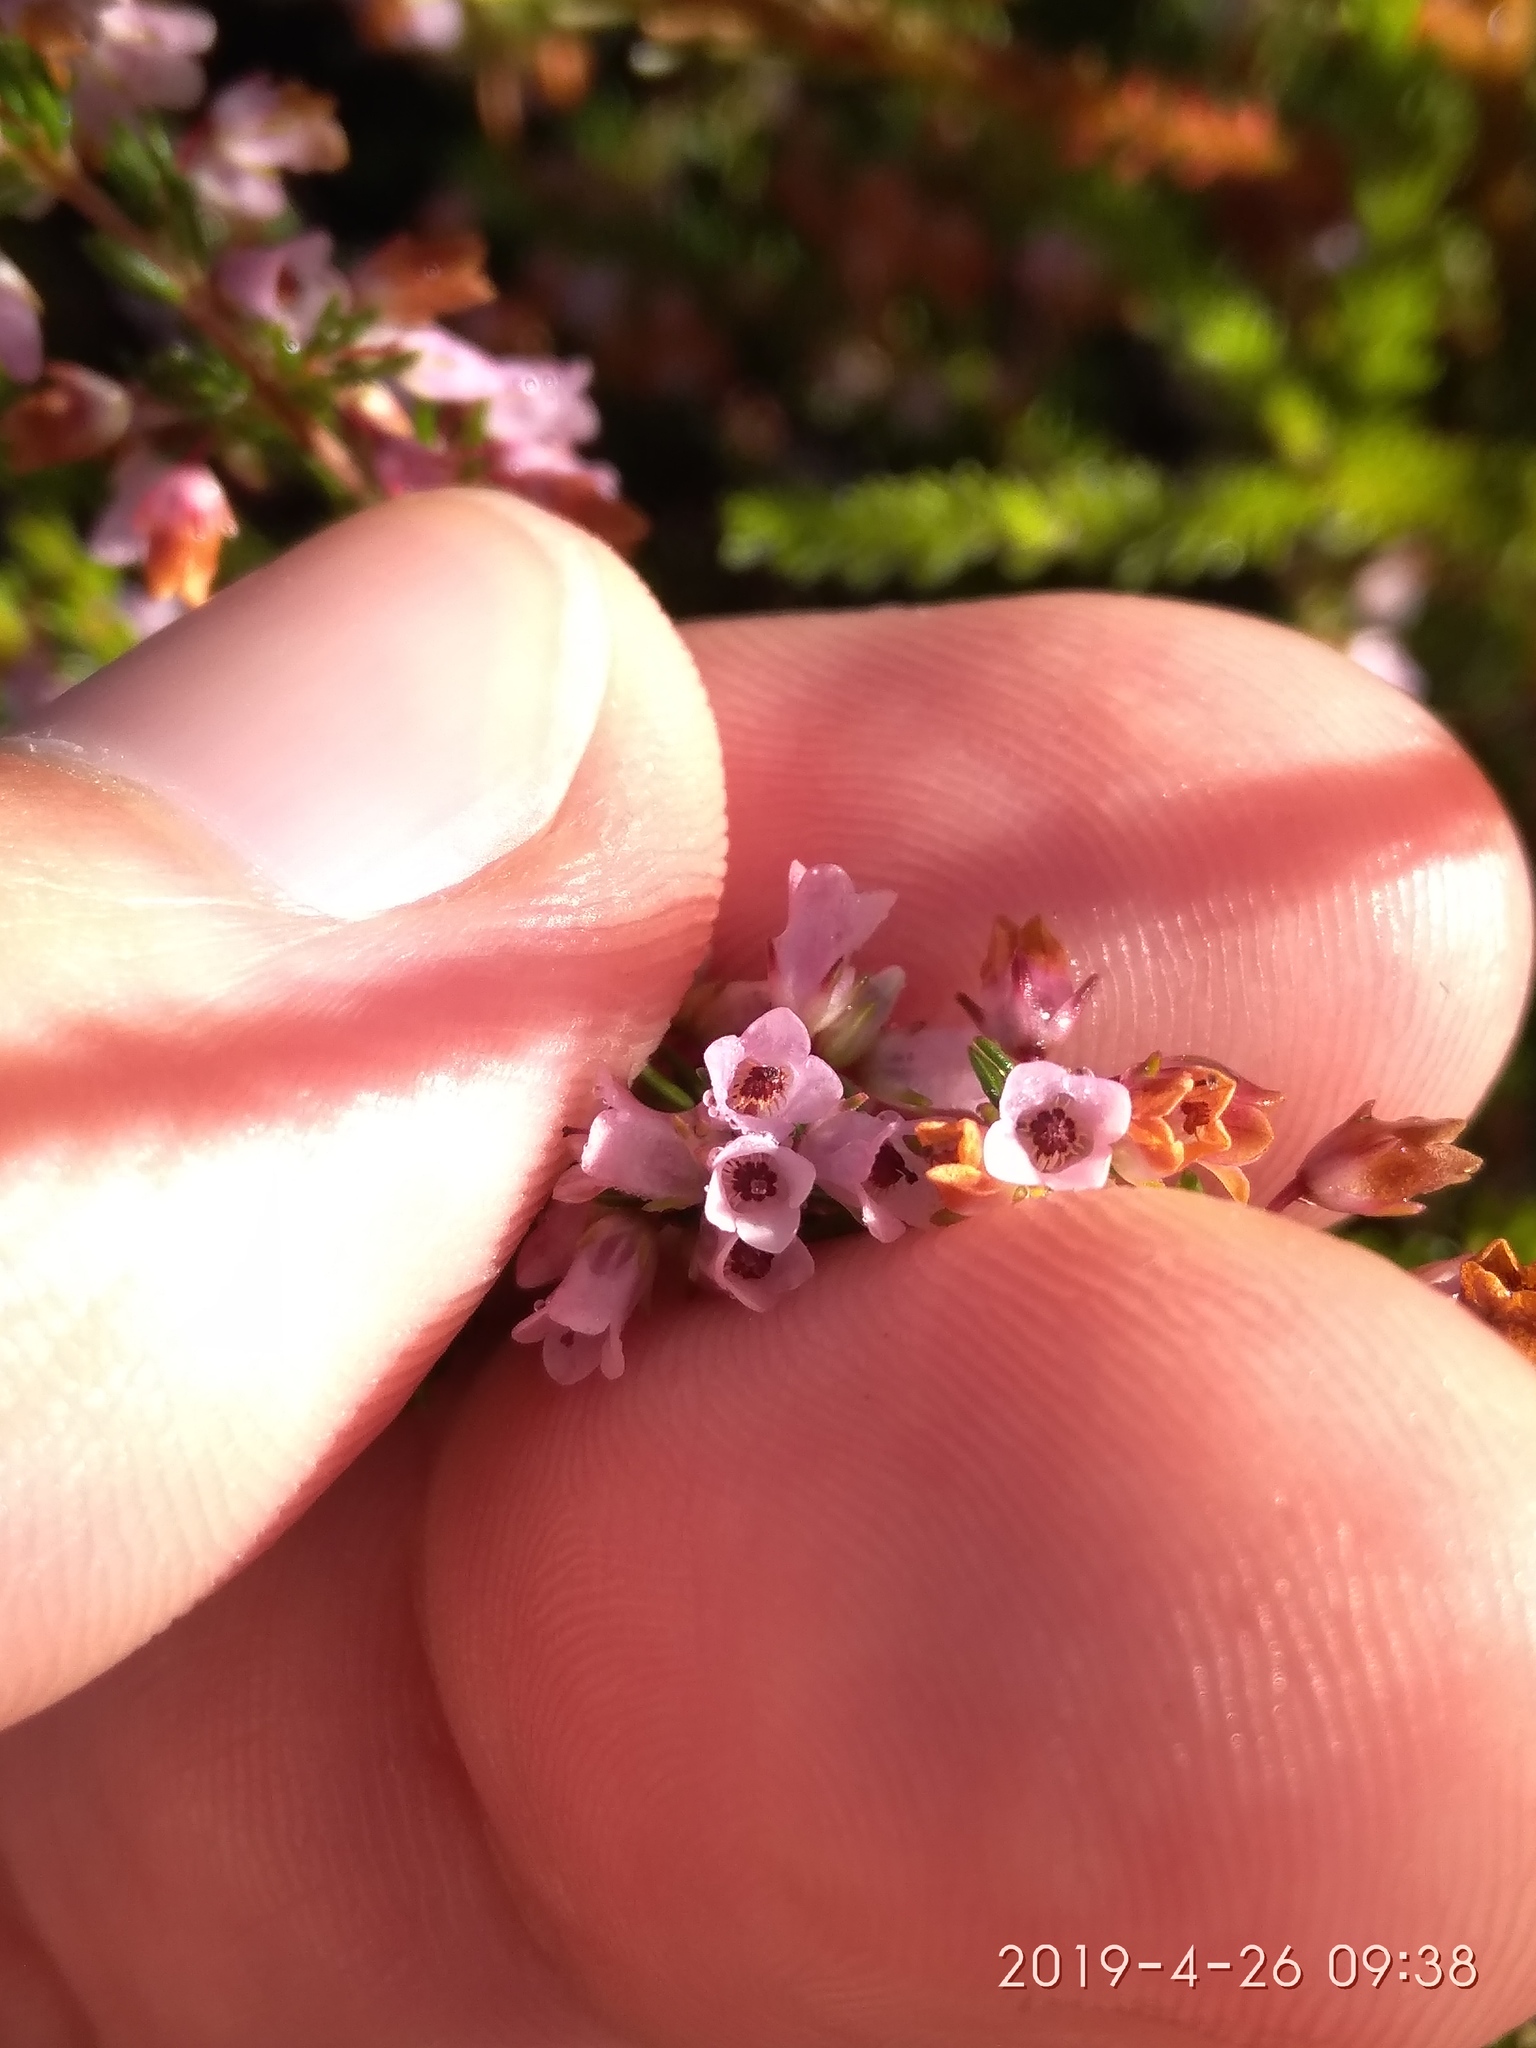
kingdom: Plantae
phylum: Tracheophyta
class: Magnoliopsida
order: Ericales
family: Ericaceae
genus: Erica
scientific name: Erica intervallaris
